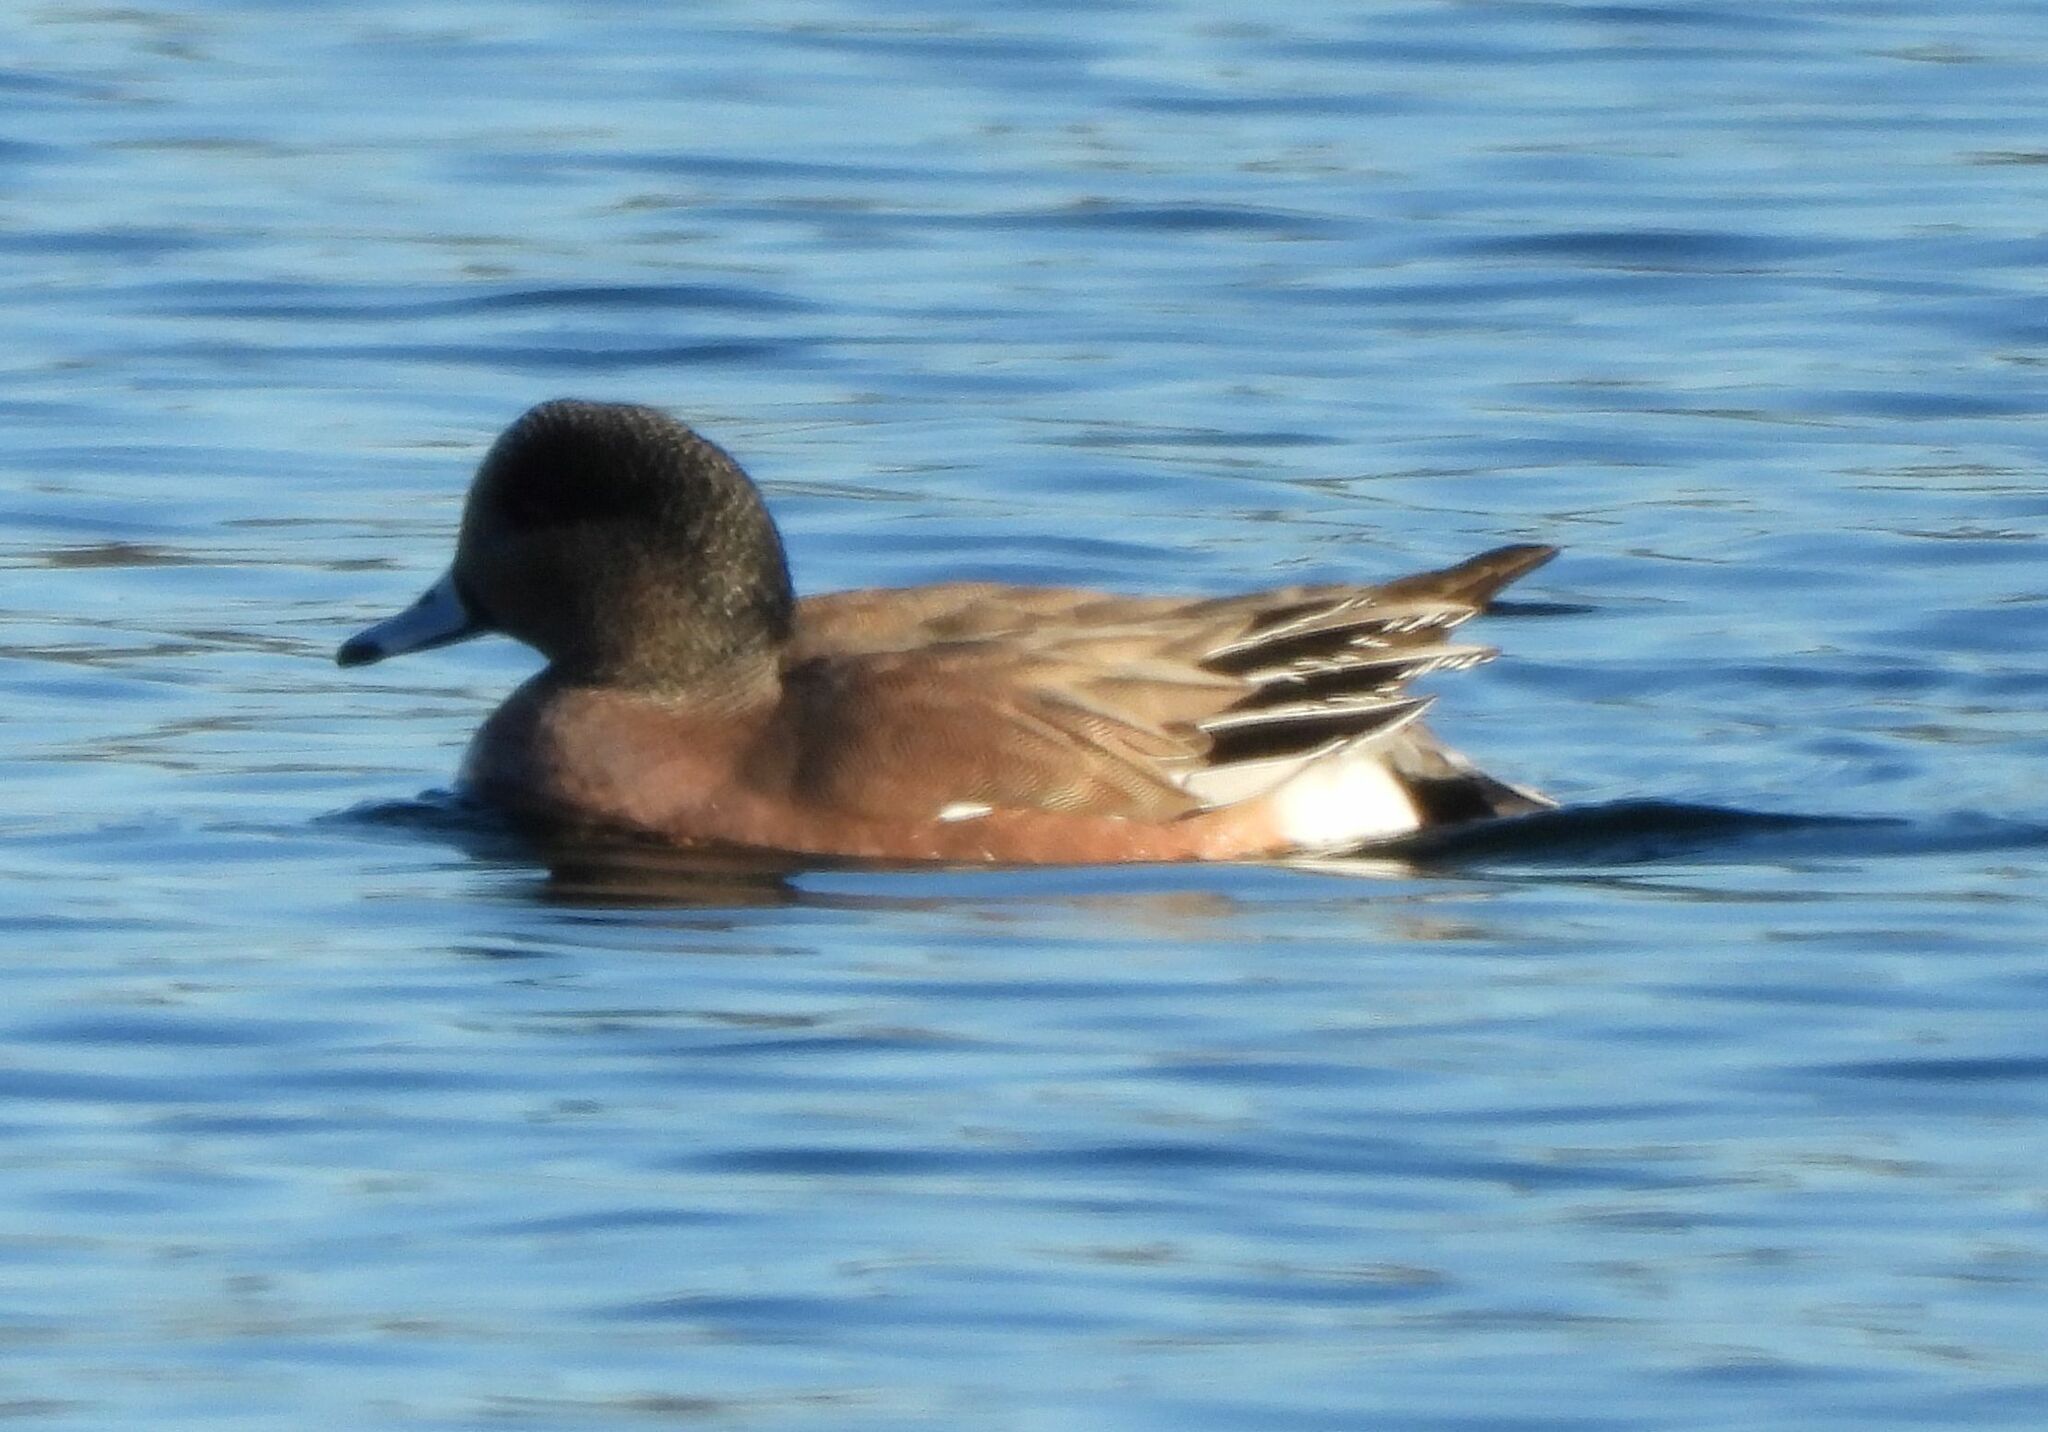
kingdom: Animalia
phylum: Chordata
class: Aves
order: Anseriformes
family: Anatidae
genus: Mareca
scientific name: Mareca americana
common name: American wigeon
